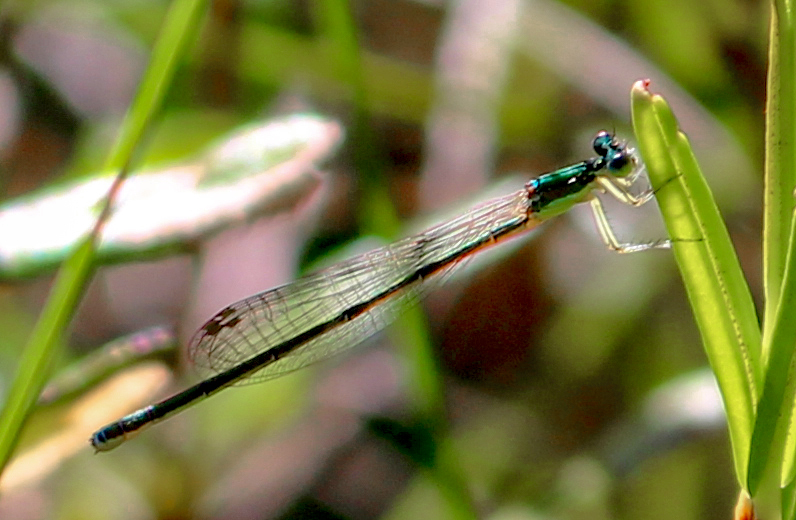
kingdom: Animalia
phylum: Arthropoda
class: Insecta
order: Odonata
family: Coenagrionidae
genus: Nehalennia
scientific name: Nehalennia irene
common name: Sedge sprite
